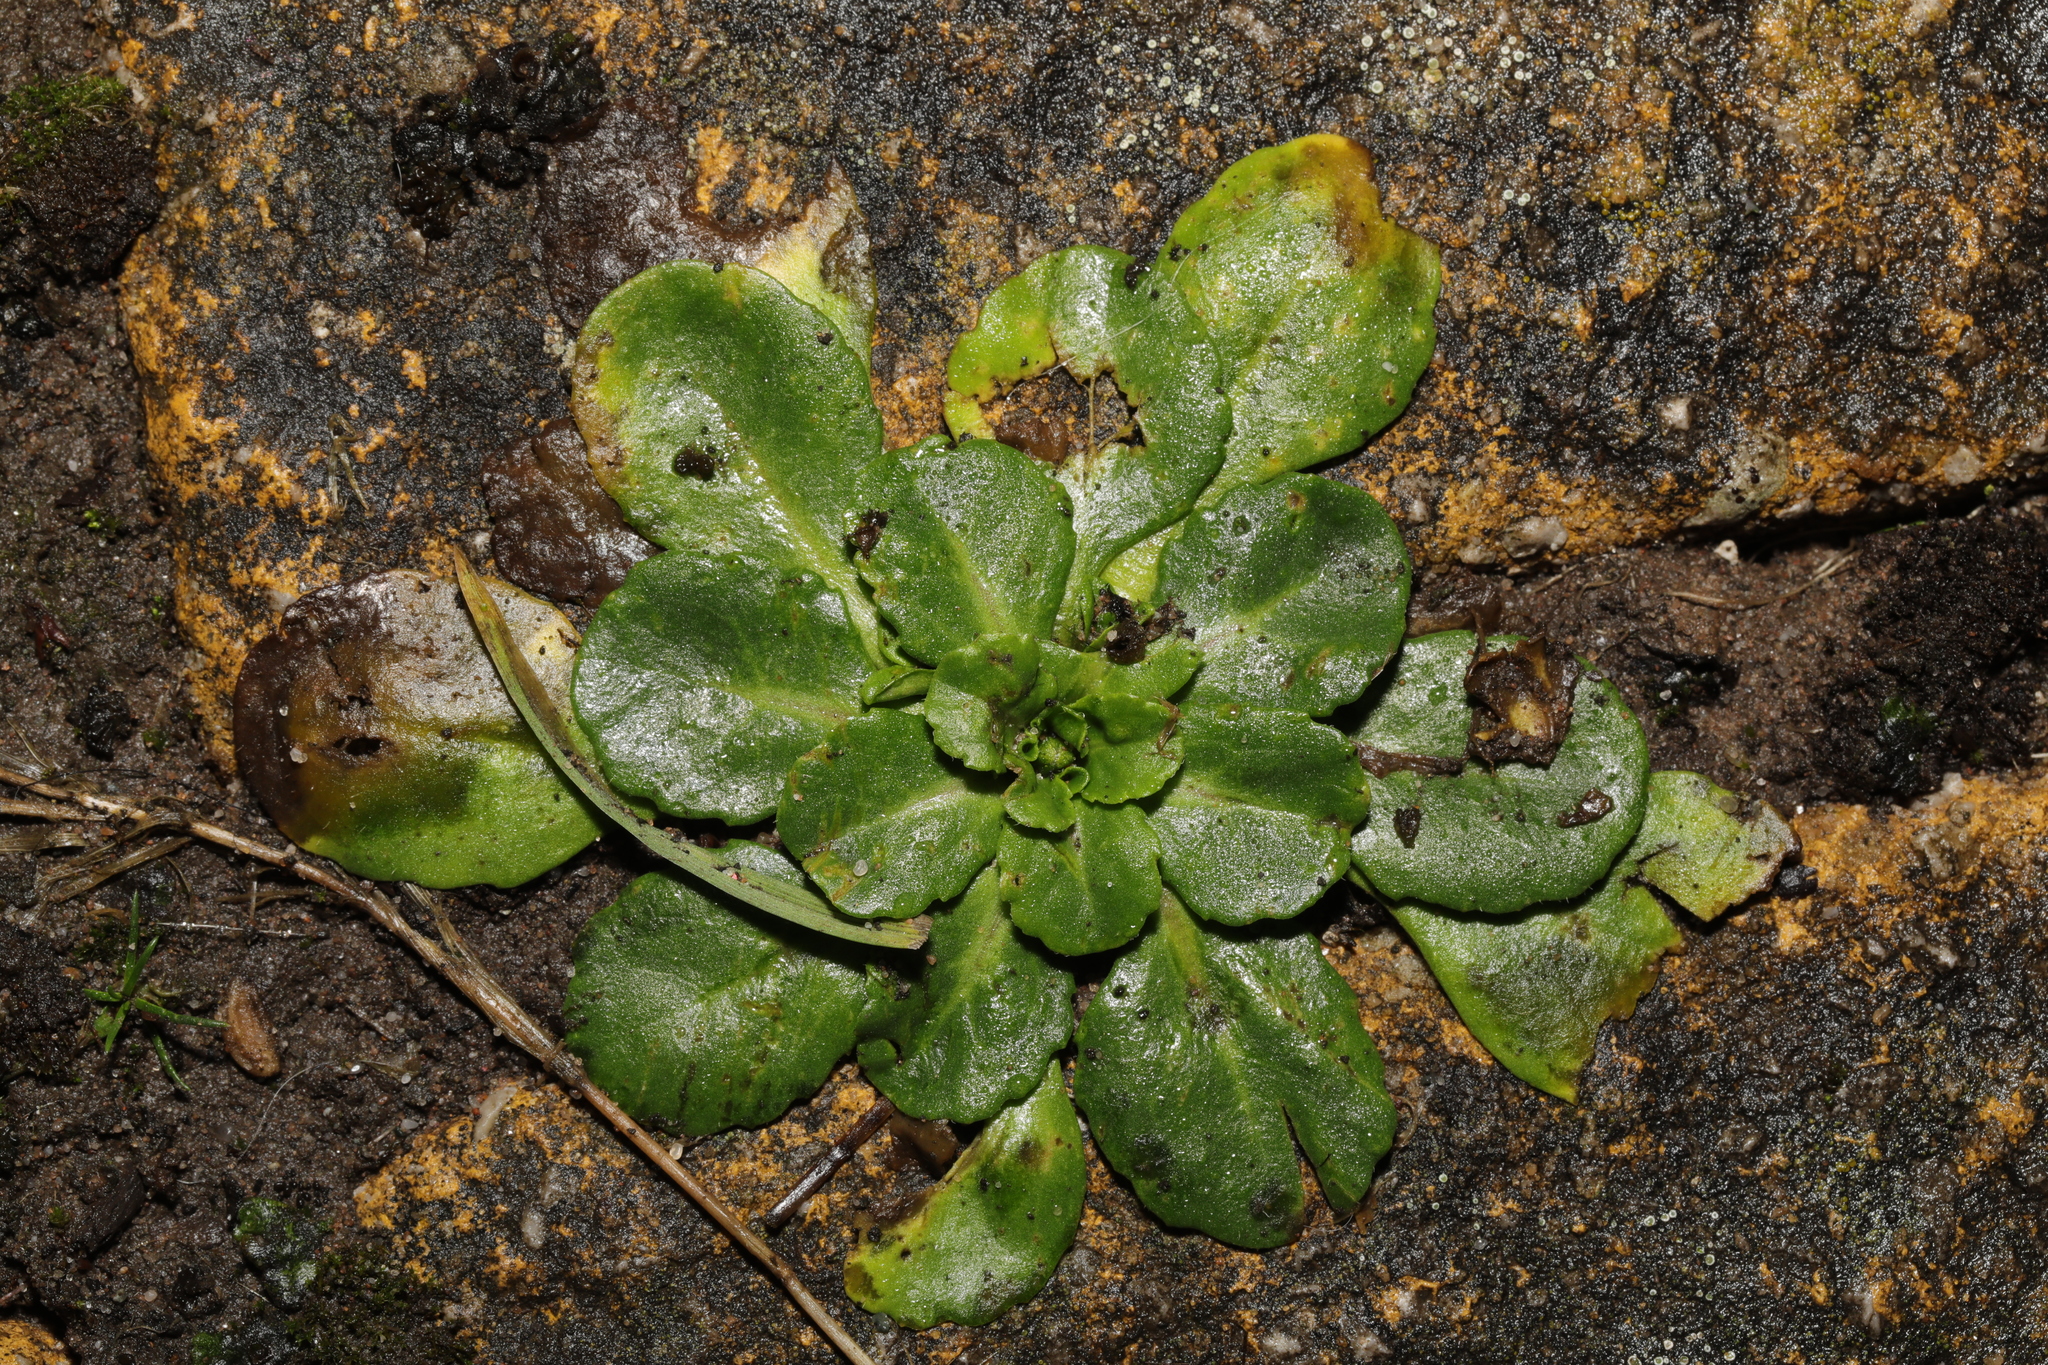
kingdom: Plantae
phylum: Tracheophyta
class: Magnoliopsida
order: Asterales
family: Asteraceae
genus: Bellis
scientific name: Bellis perennis
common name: Lawndaisy
